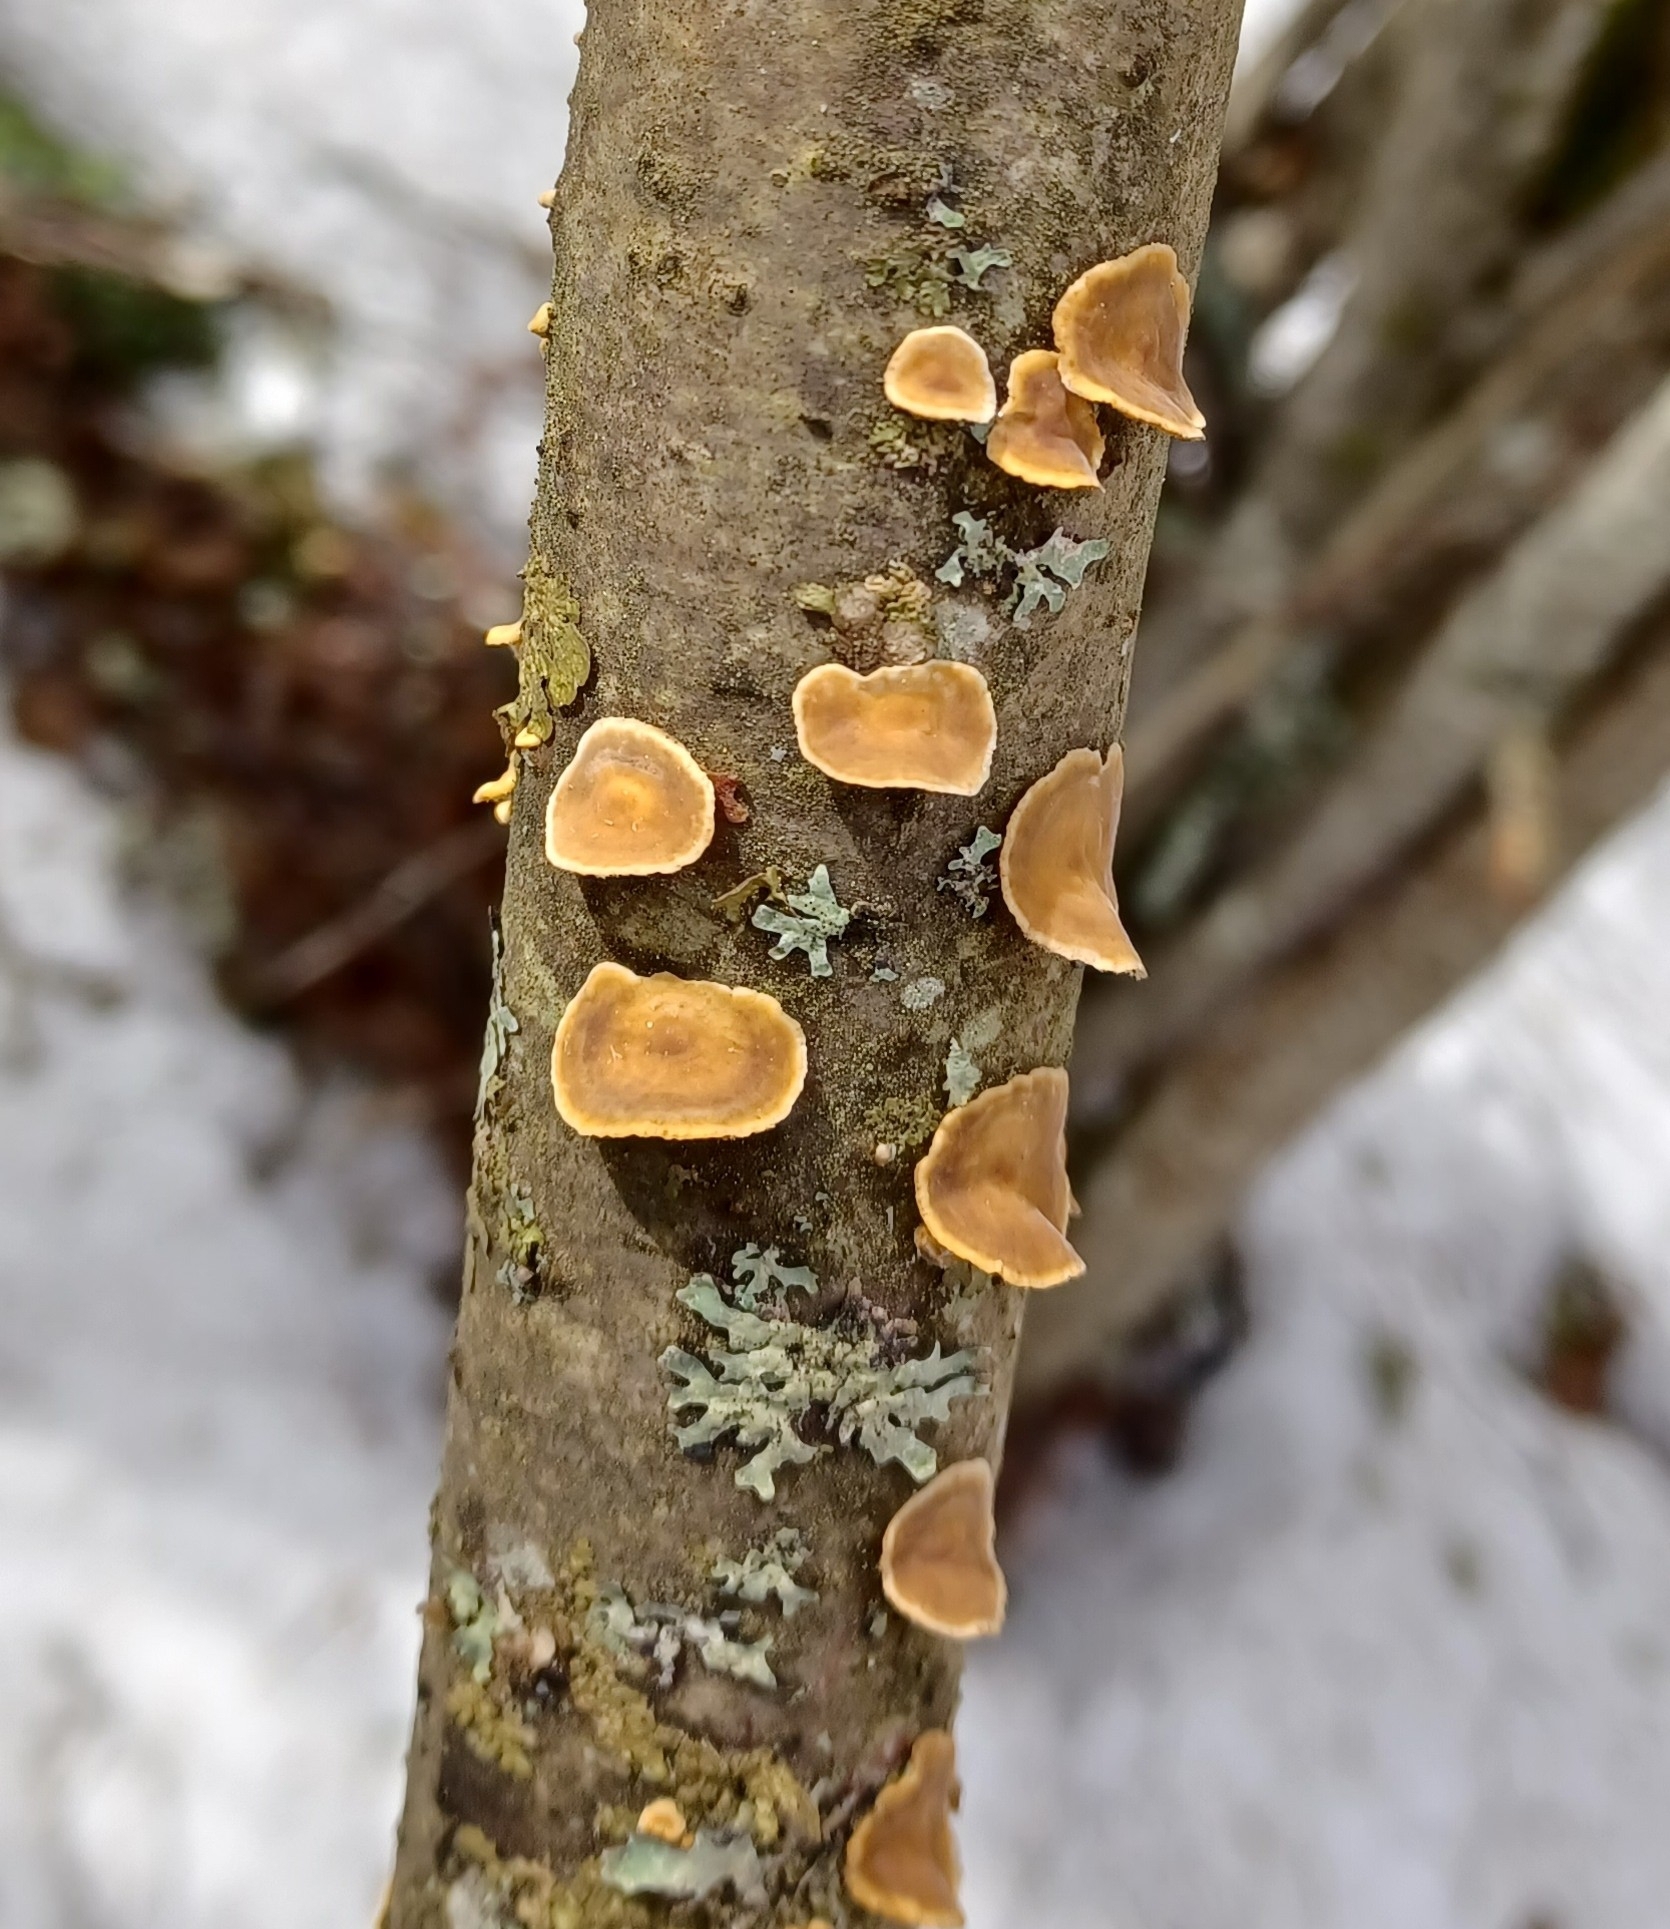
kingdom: Fungi
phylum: Basidiomycota
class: Agaricomycetes
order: Russulales
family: Stereaceae
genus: Stereum
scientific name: Stereum subtomentosum
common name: Yellowing curtain crust
